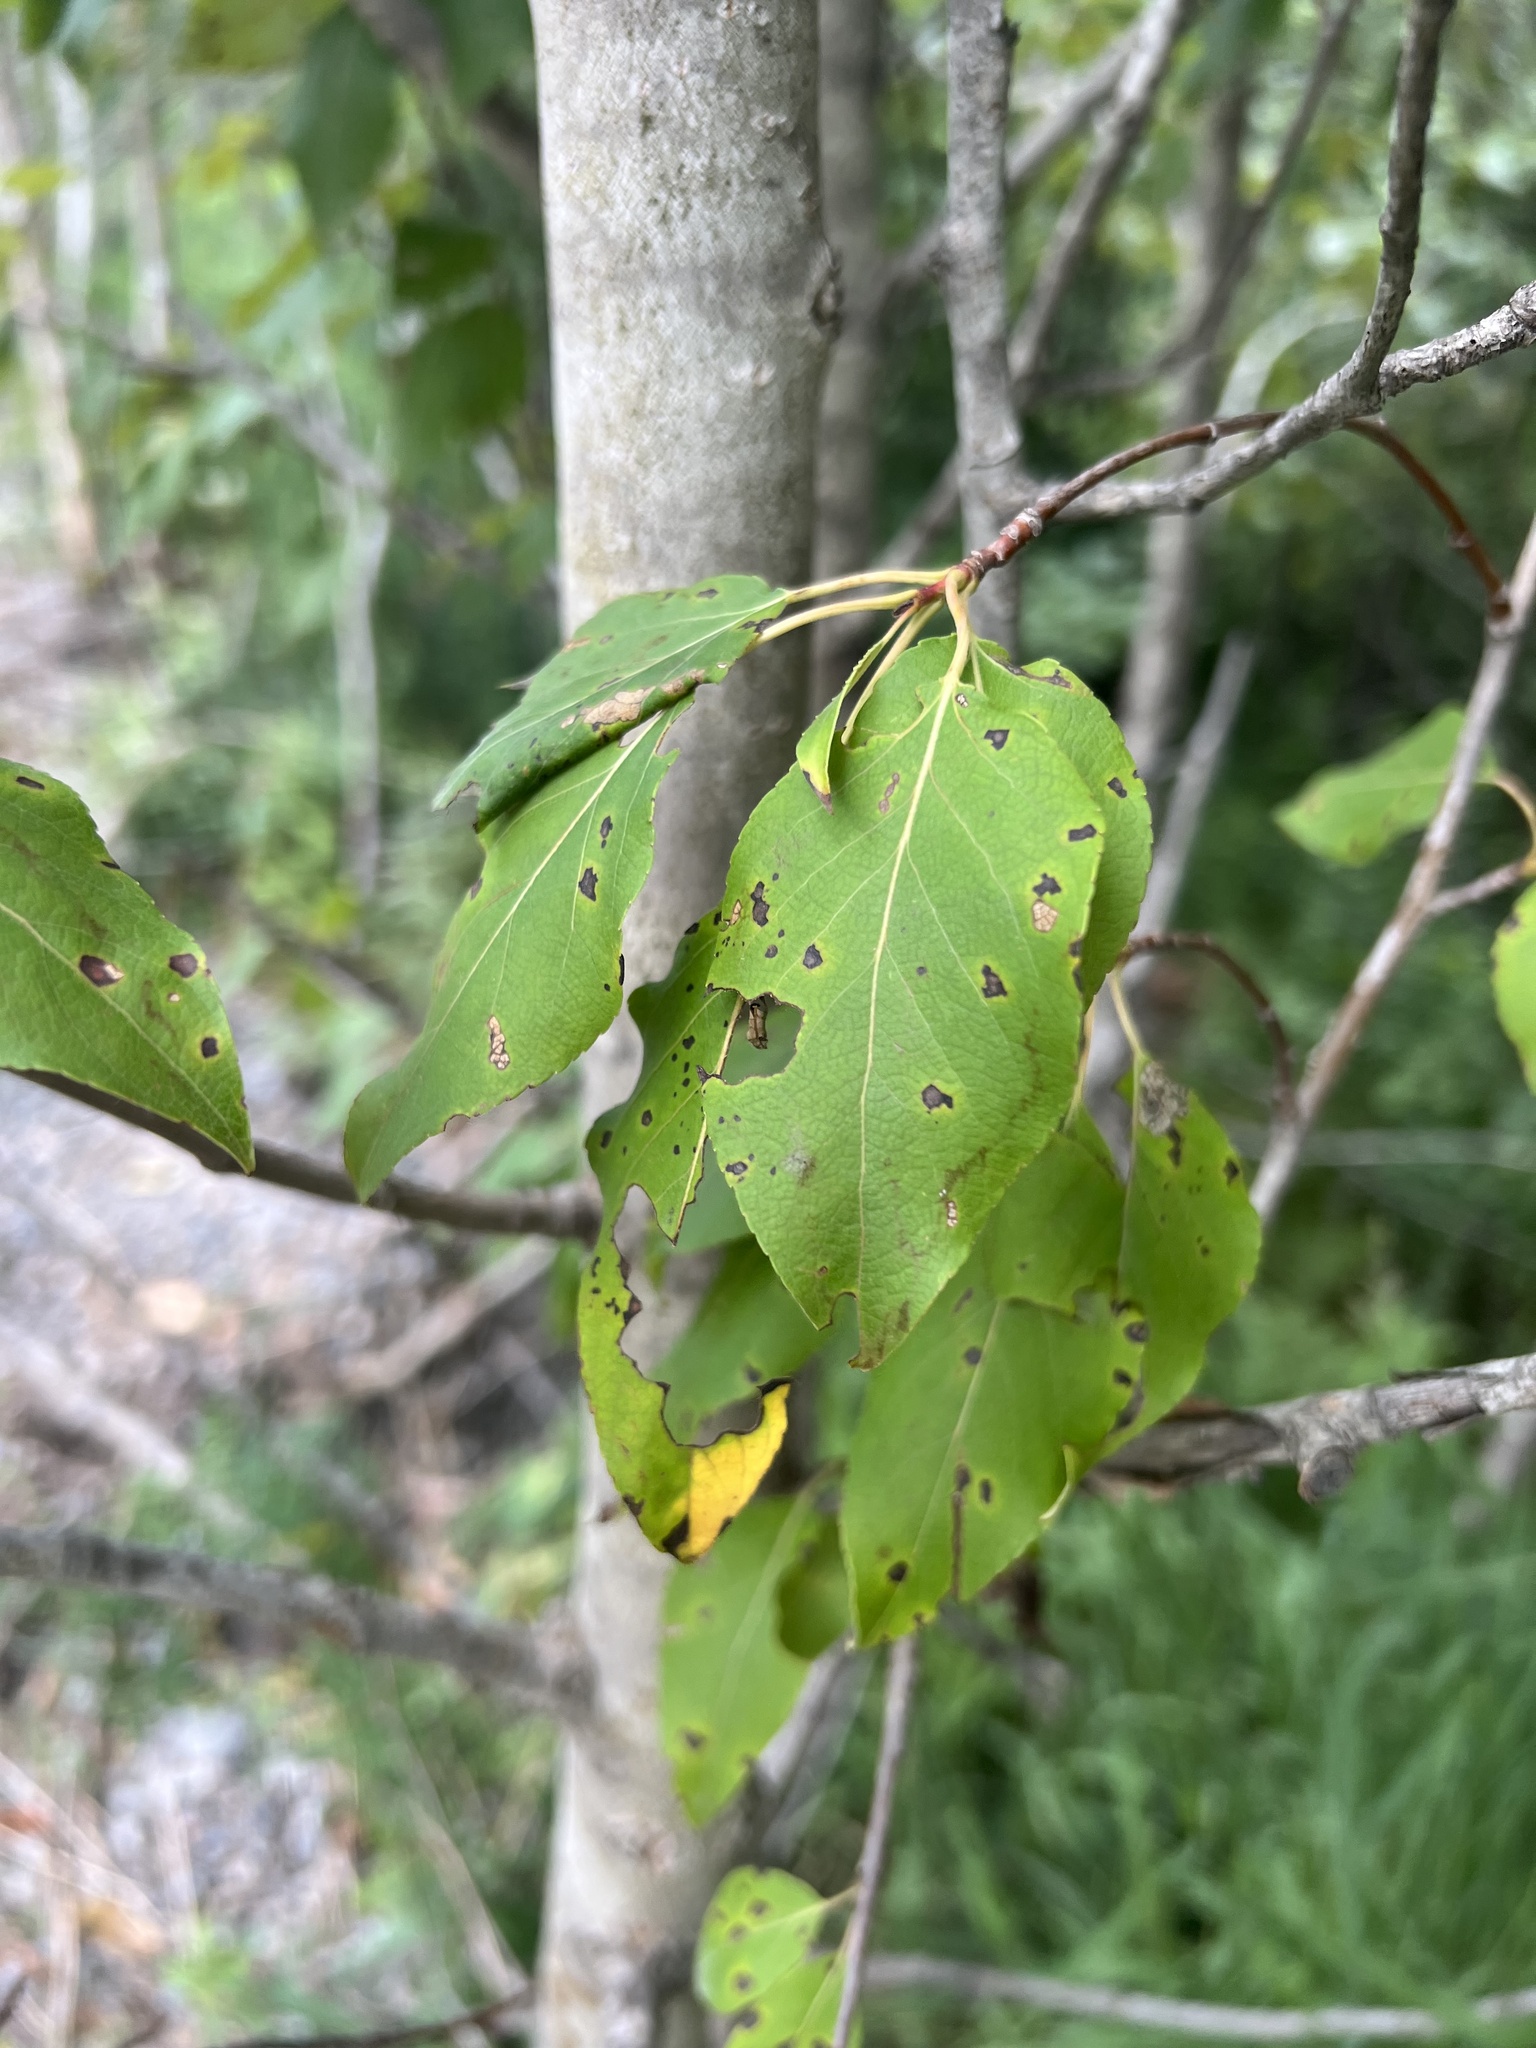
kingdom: Plantae
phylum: Tracheophyta
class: Magnoliopsida
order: Malpighiales
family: Salicaceae
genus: Populus
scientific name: Populus balsamifera
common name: Balsam poplar
